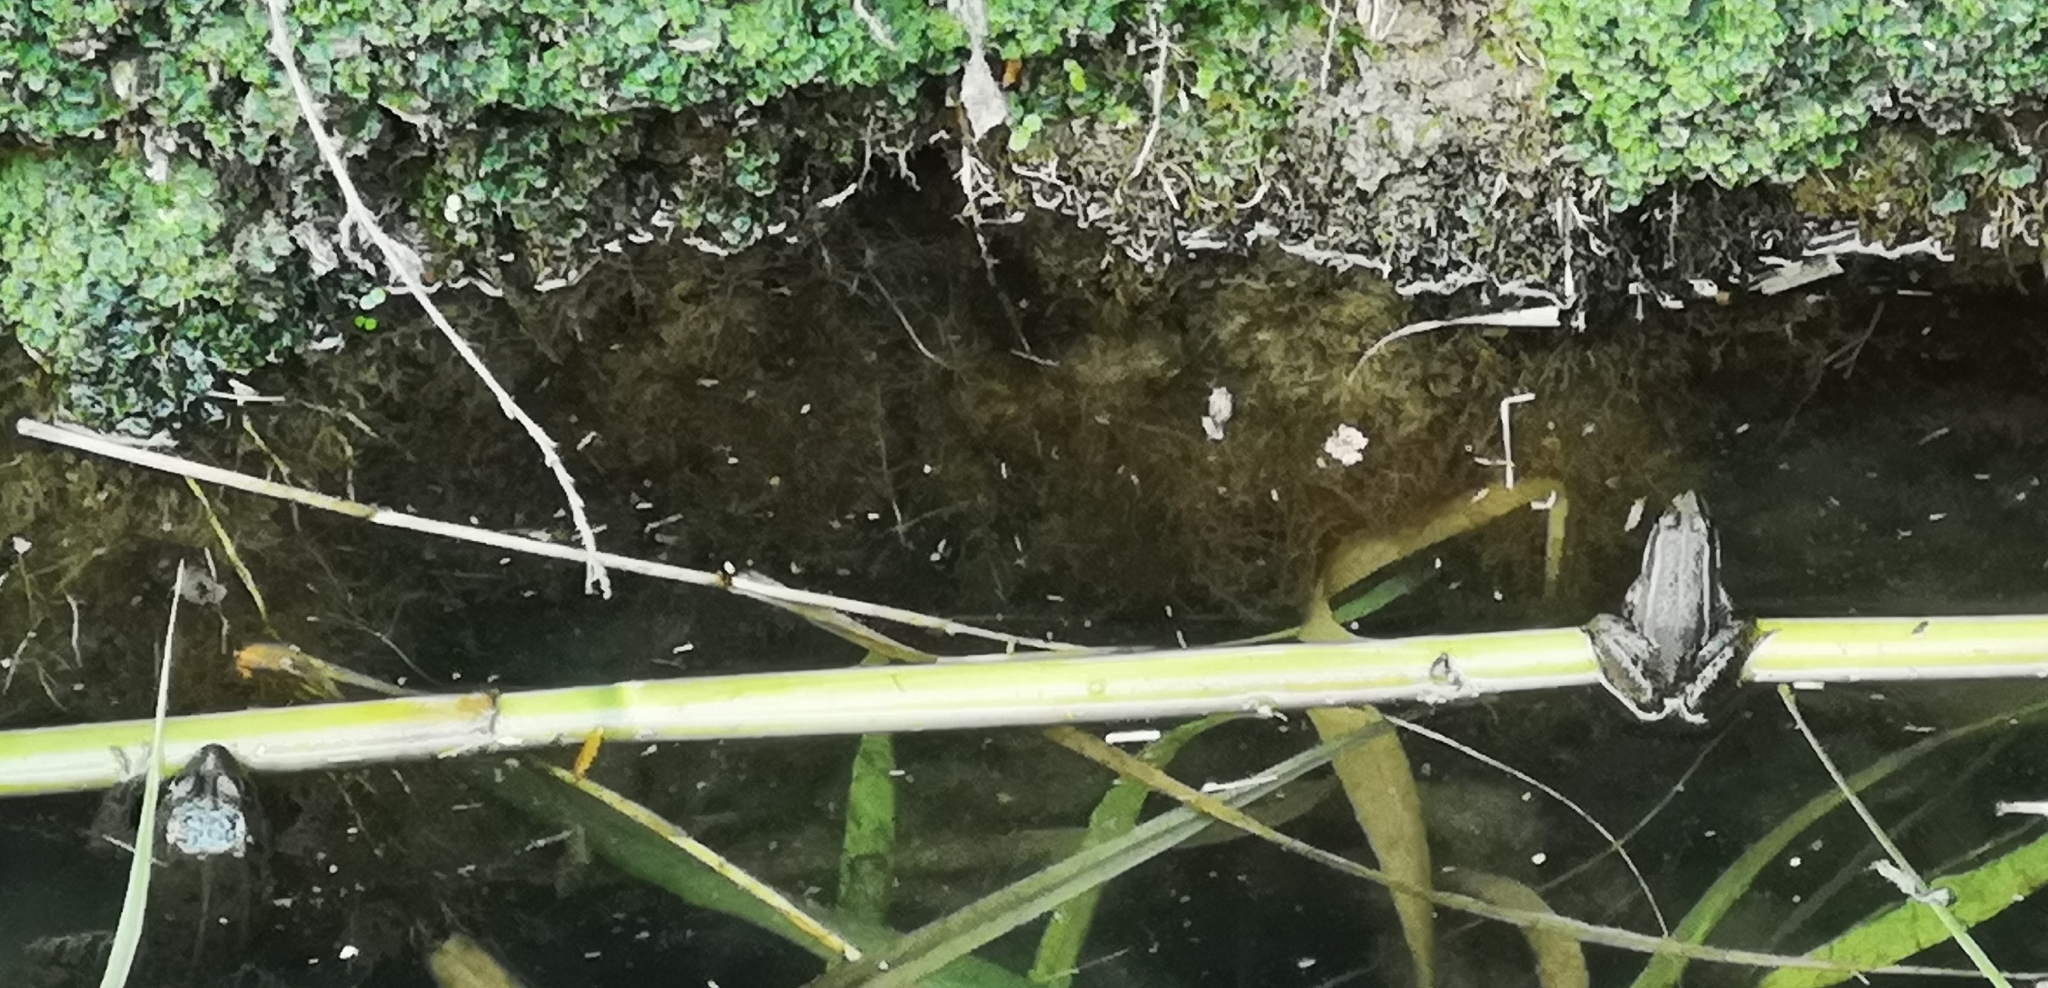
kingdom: Animalia
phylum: Chordata
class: Amphibia
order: Anura
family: Ranidae
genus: Pelophylax
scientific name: Pelophylax
